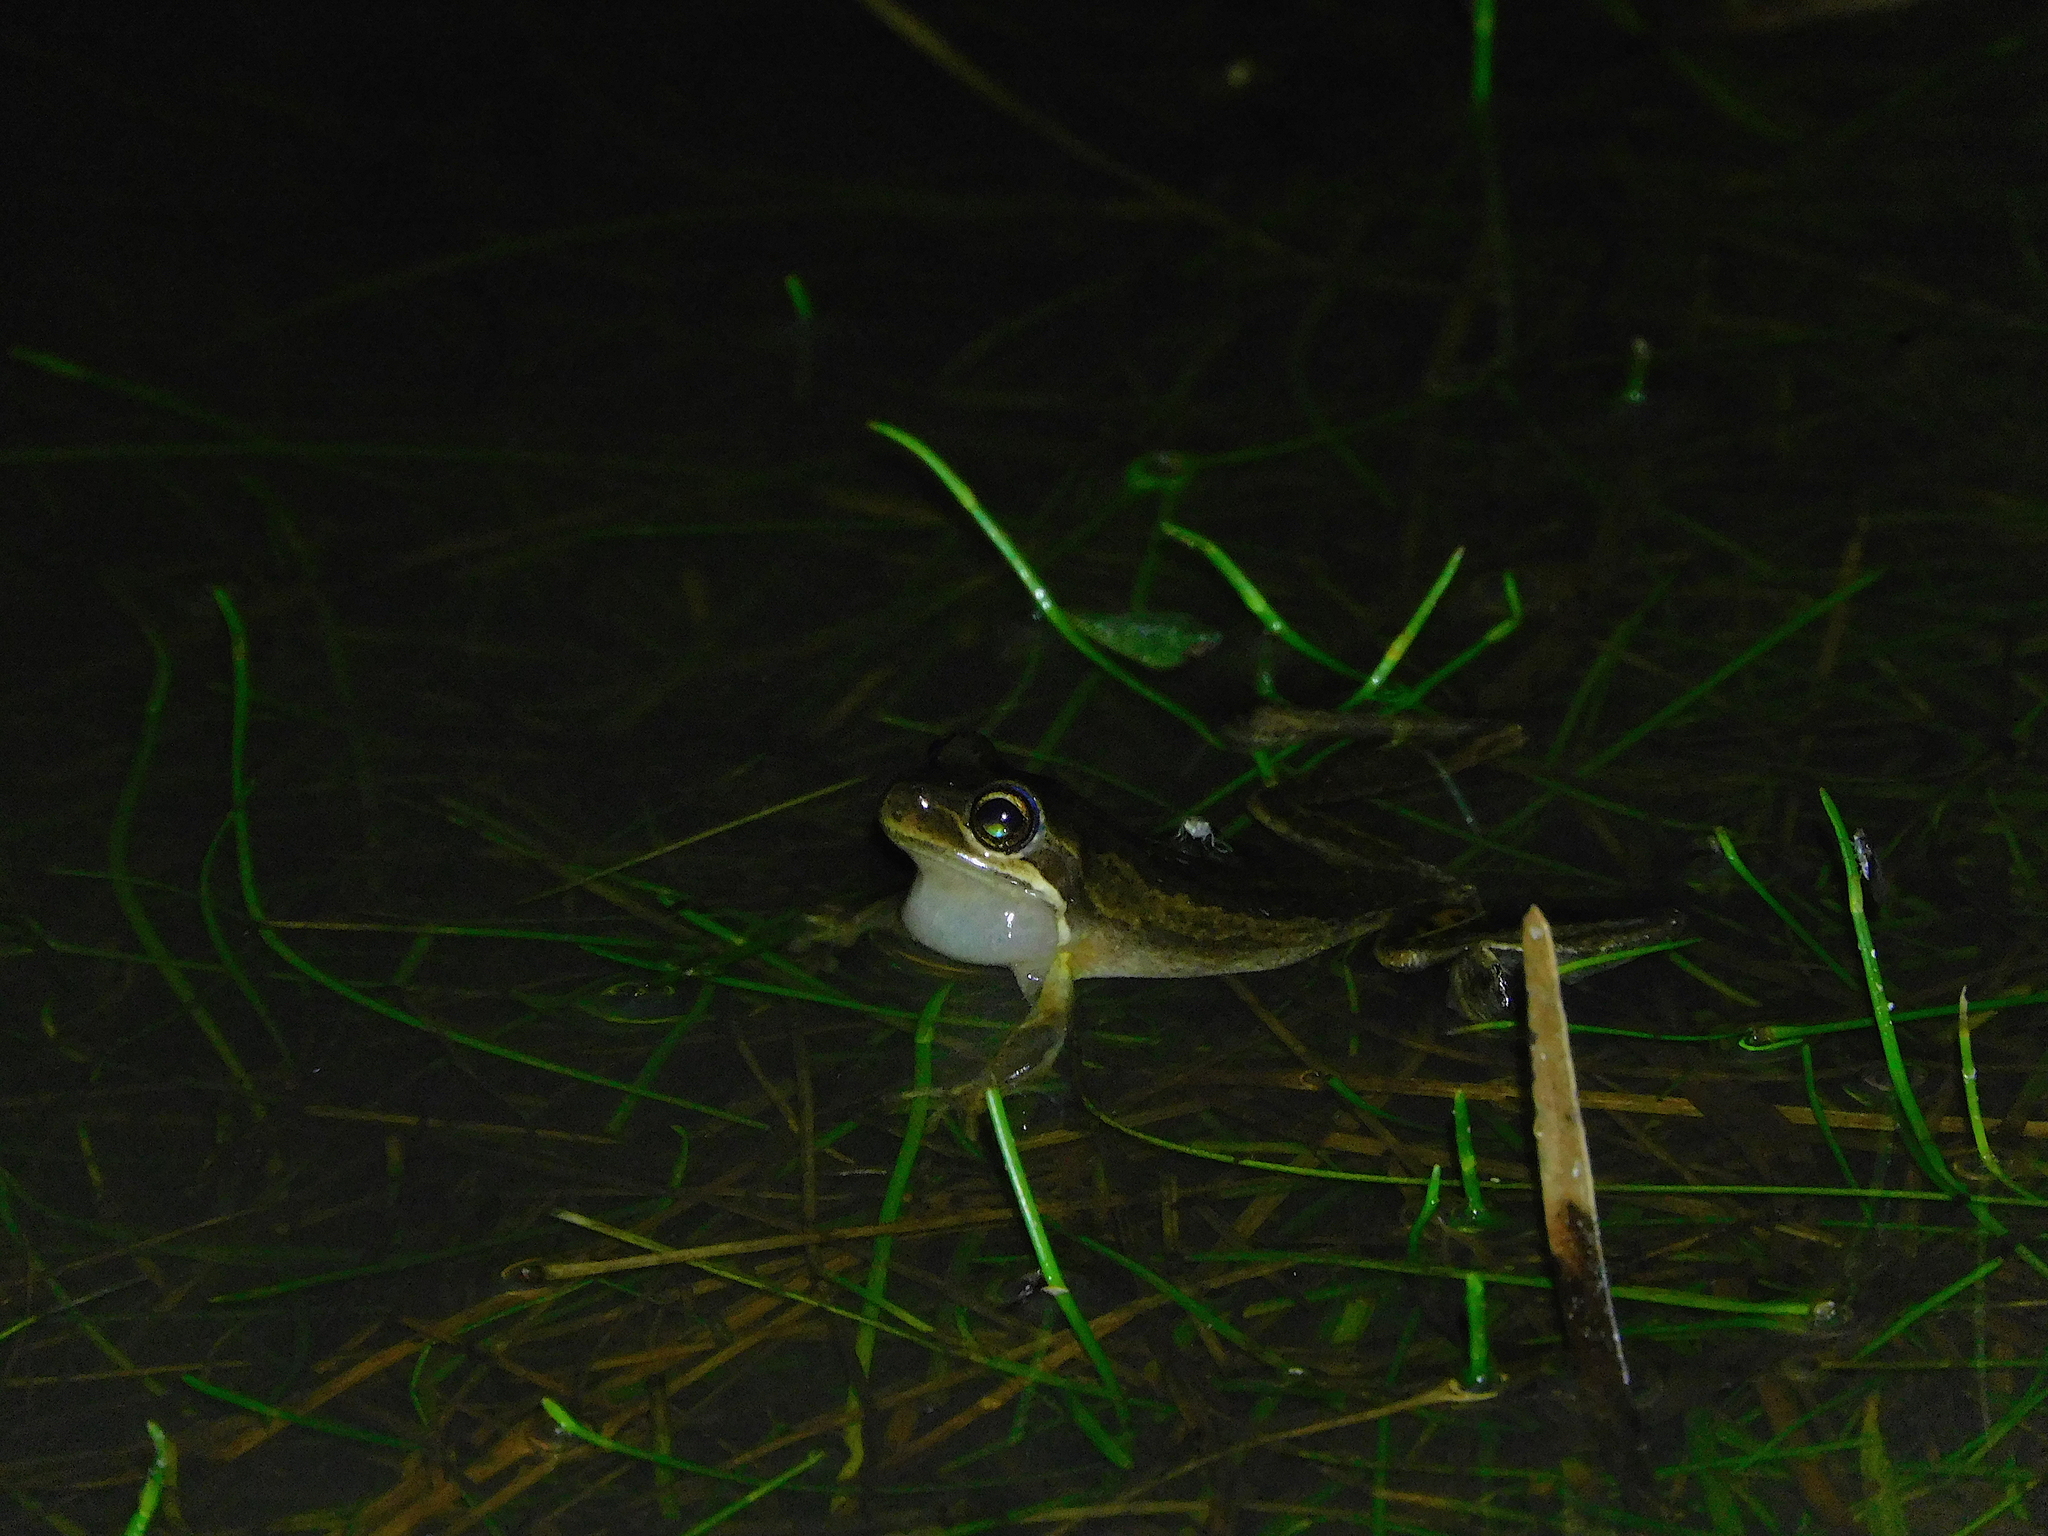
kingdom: Animalia
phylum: Chordata
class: Amphibia
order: Anura
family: Pelodryadidae
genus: Litoria
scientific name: Litoria ewingii
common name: Southern brown tree frog
